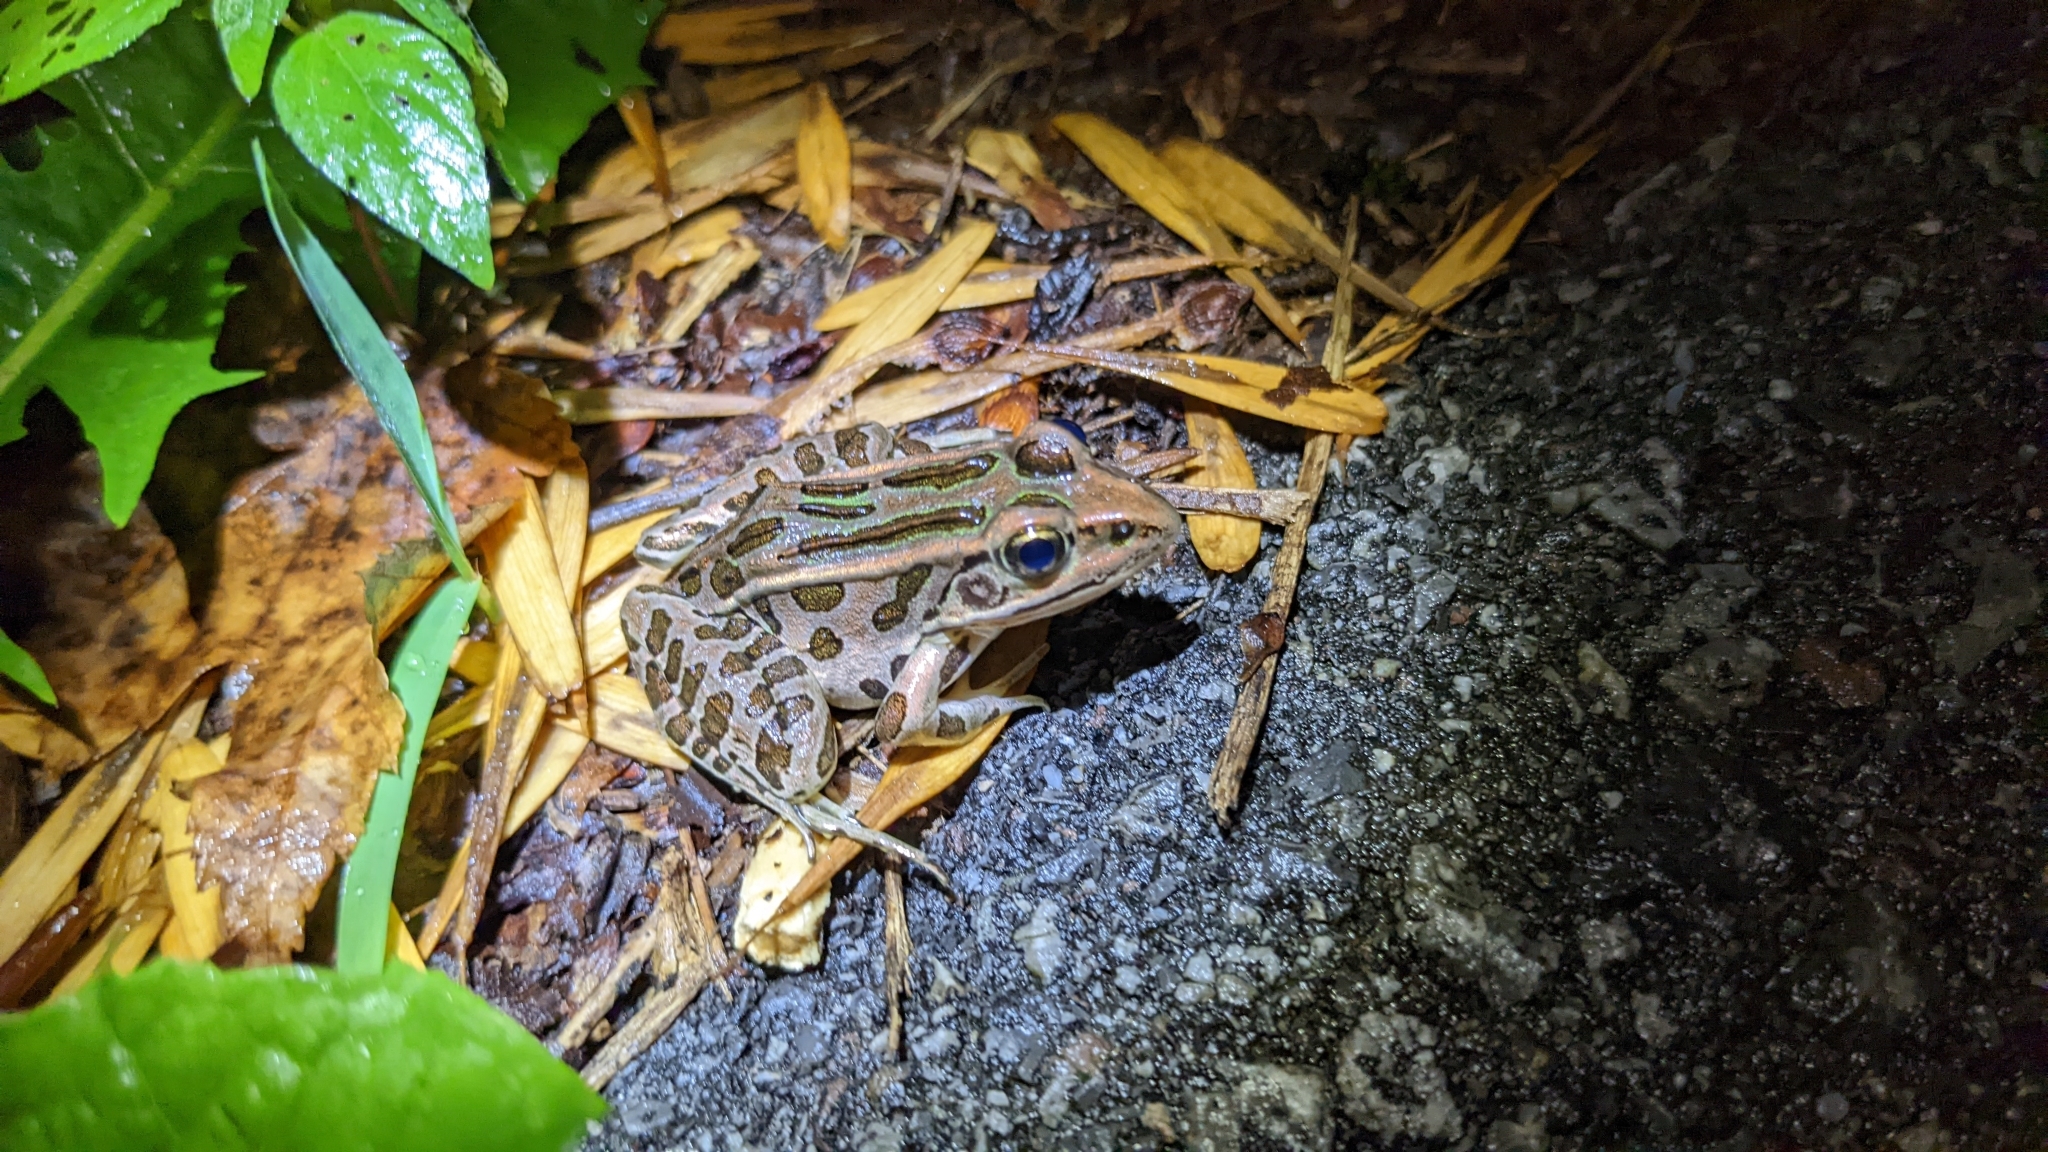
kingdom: Animalia
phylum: Chordata
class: Amphibia
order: Anura
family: Ranidae
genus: Lithobates
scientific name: Lithobates pipiens
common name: Northern leopard frog
